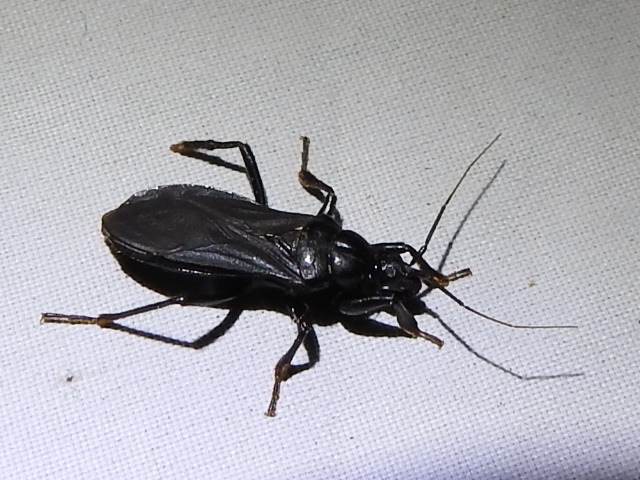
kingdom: Animalia
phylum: Arthropoda
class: Insecta
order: Hemiptera
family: Reduviidae
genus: Melanolestes
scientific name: Melanolestes picipes
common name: Assassin bug
